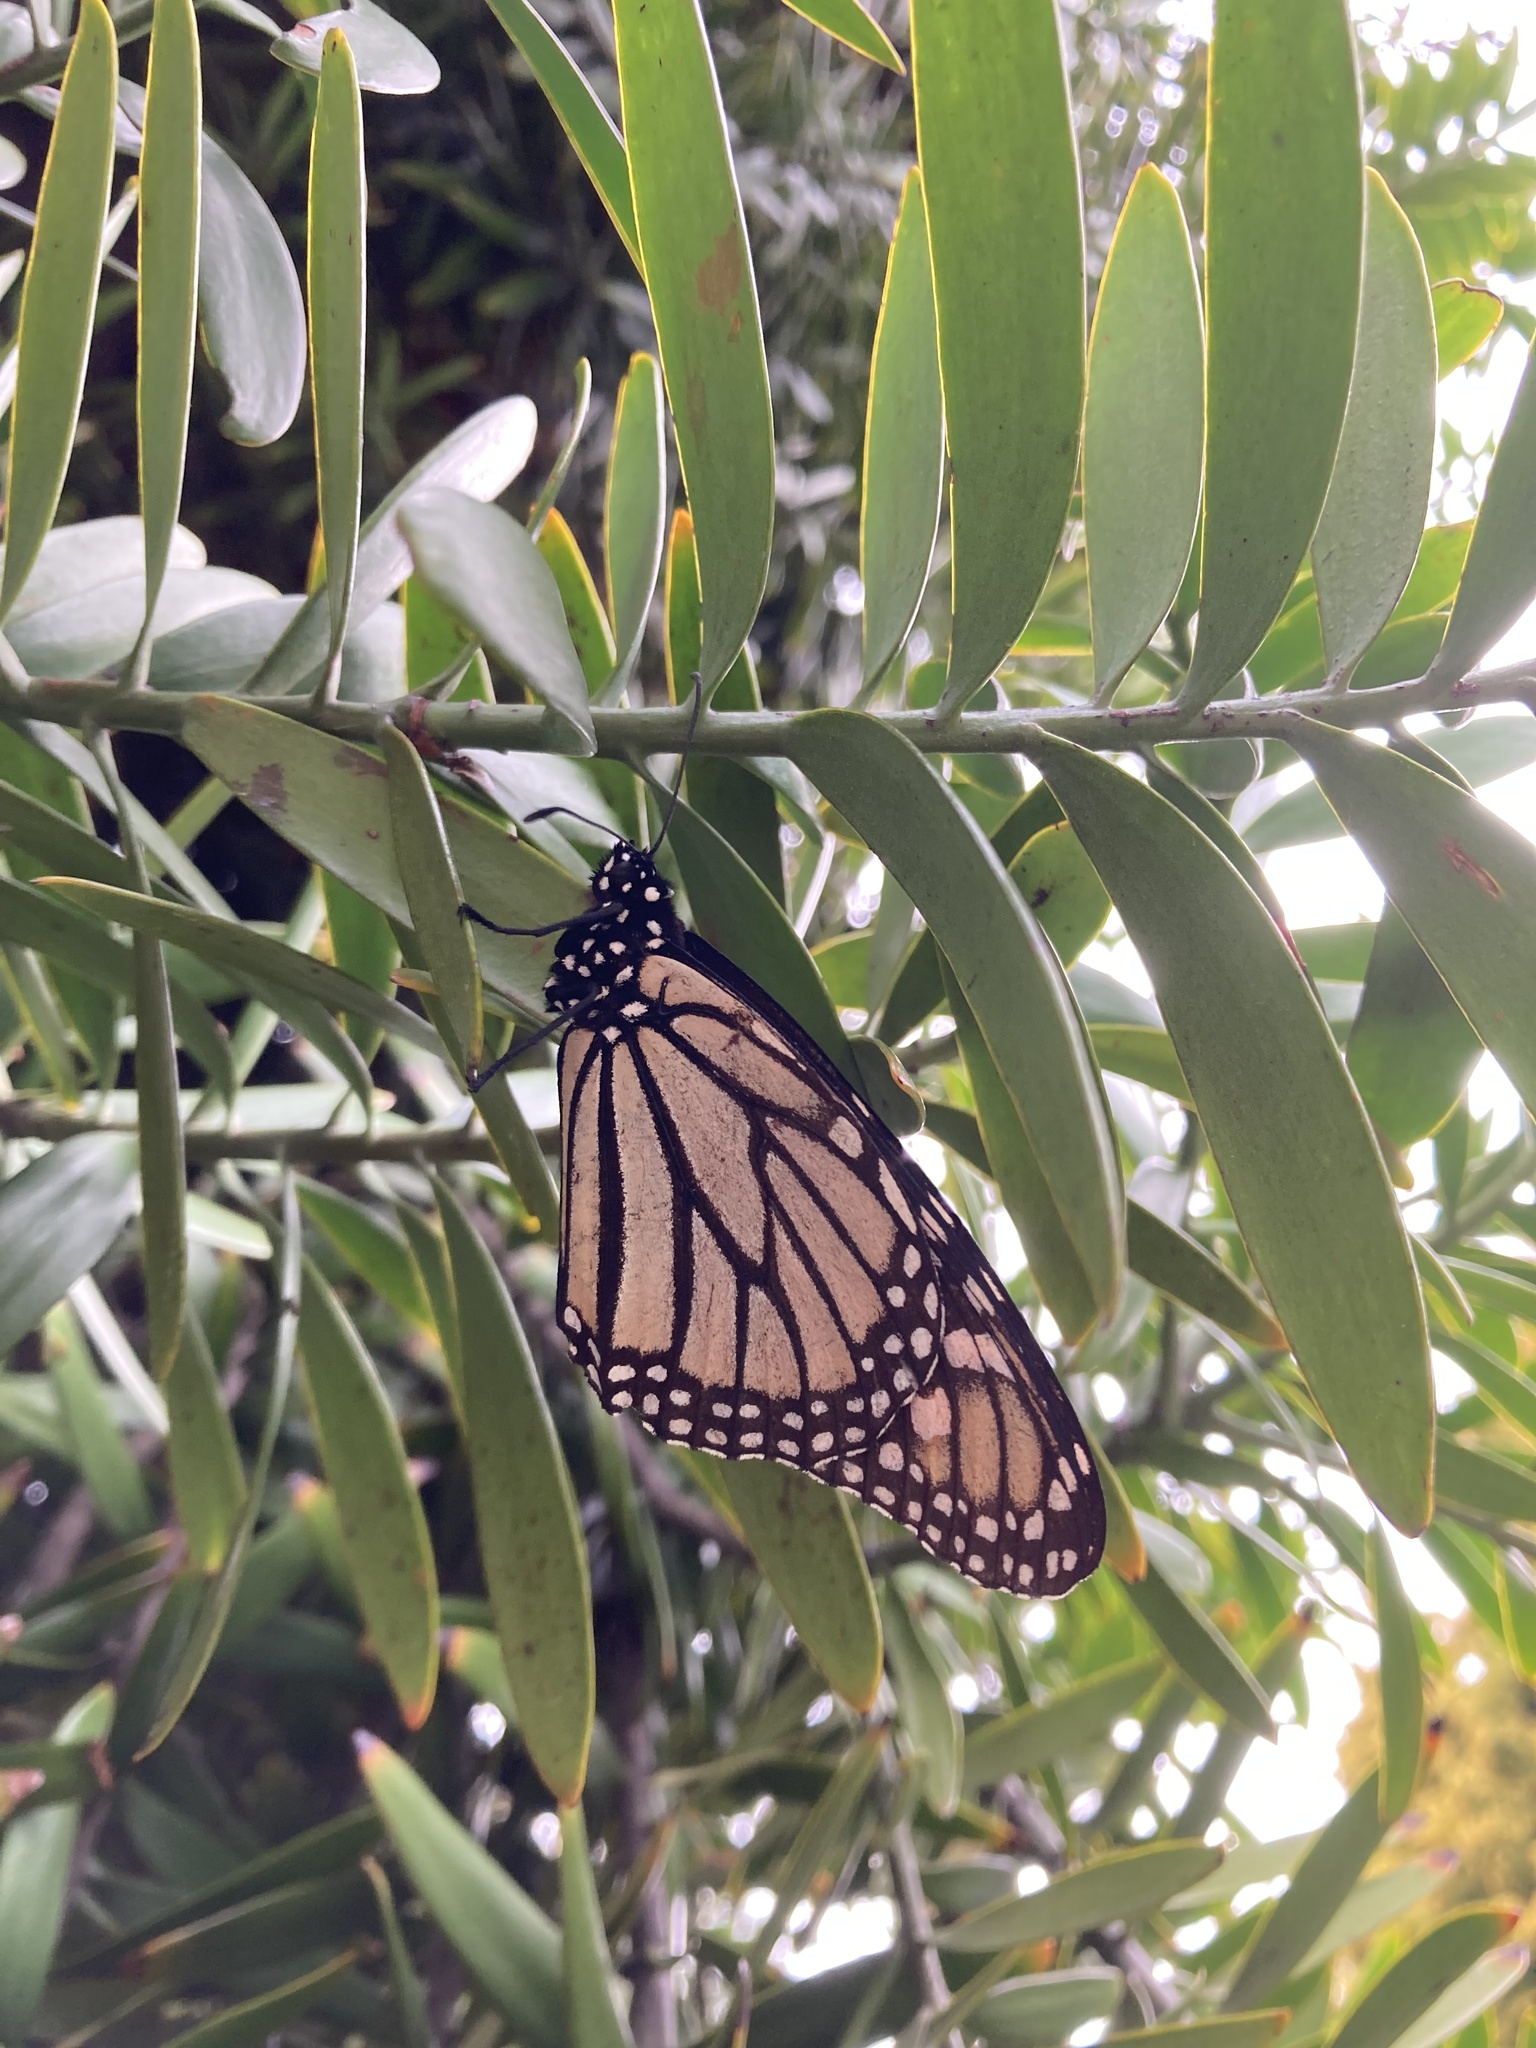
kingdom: Animalia
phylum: Arthropoda
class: Insecta
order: Lepidoptera
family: Nymphalidae
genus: Danaus
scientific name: Danaus plexippus
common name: Monarch
